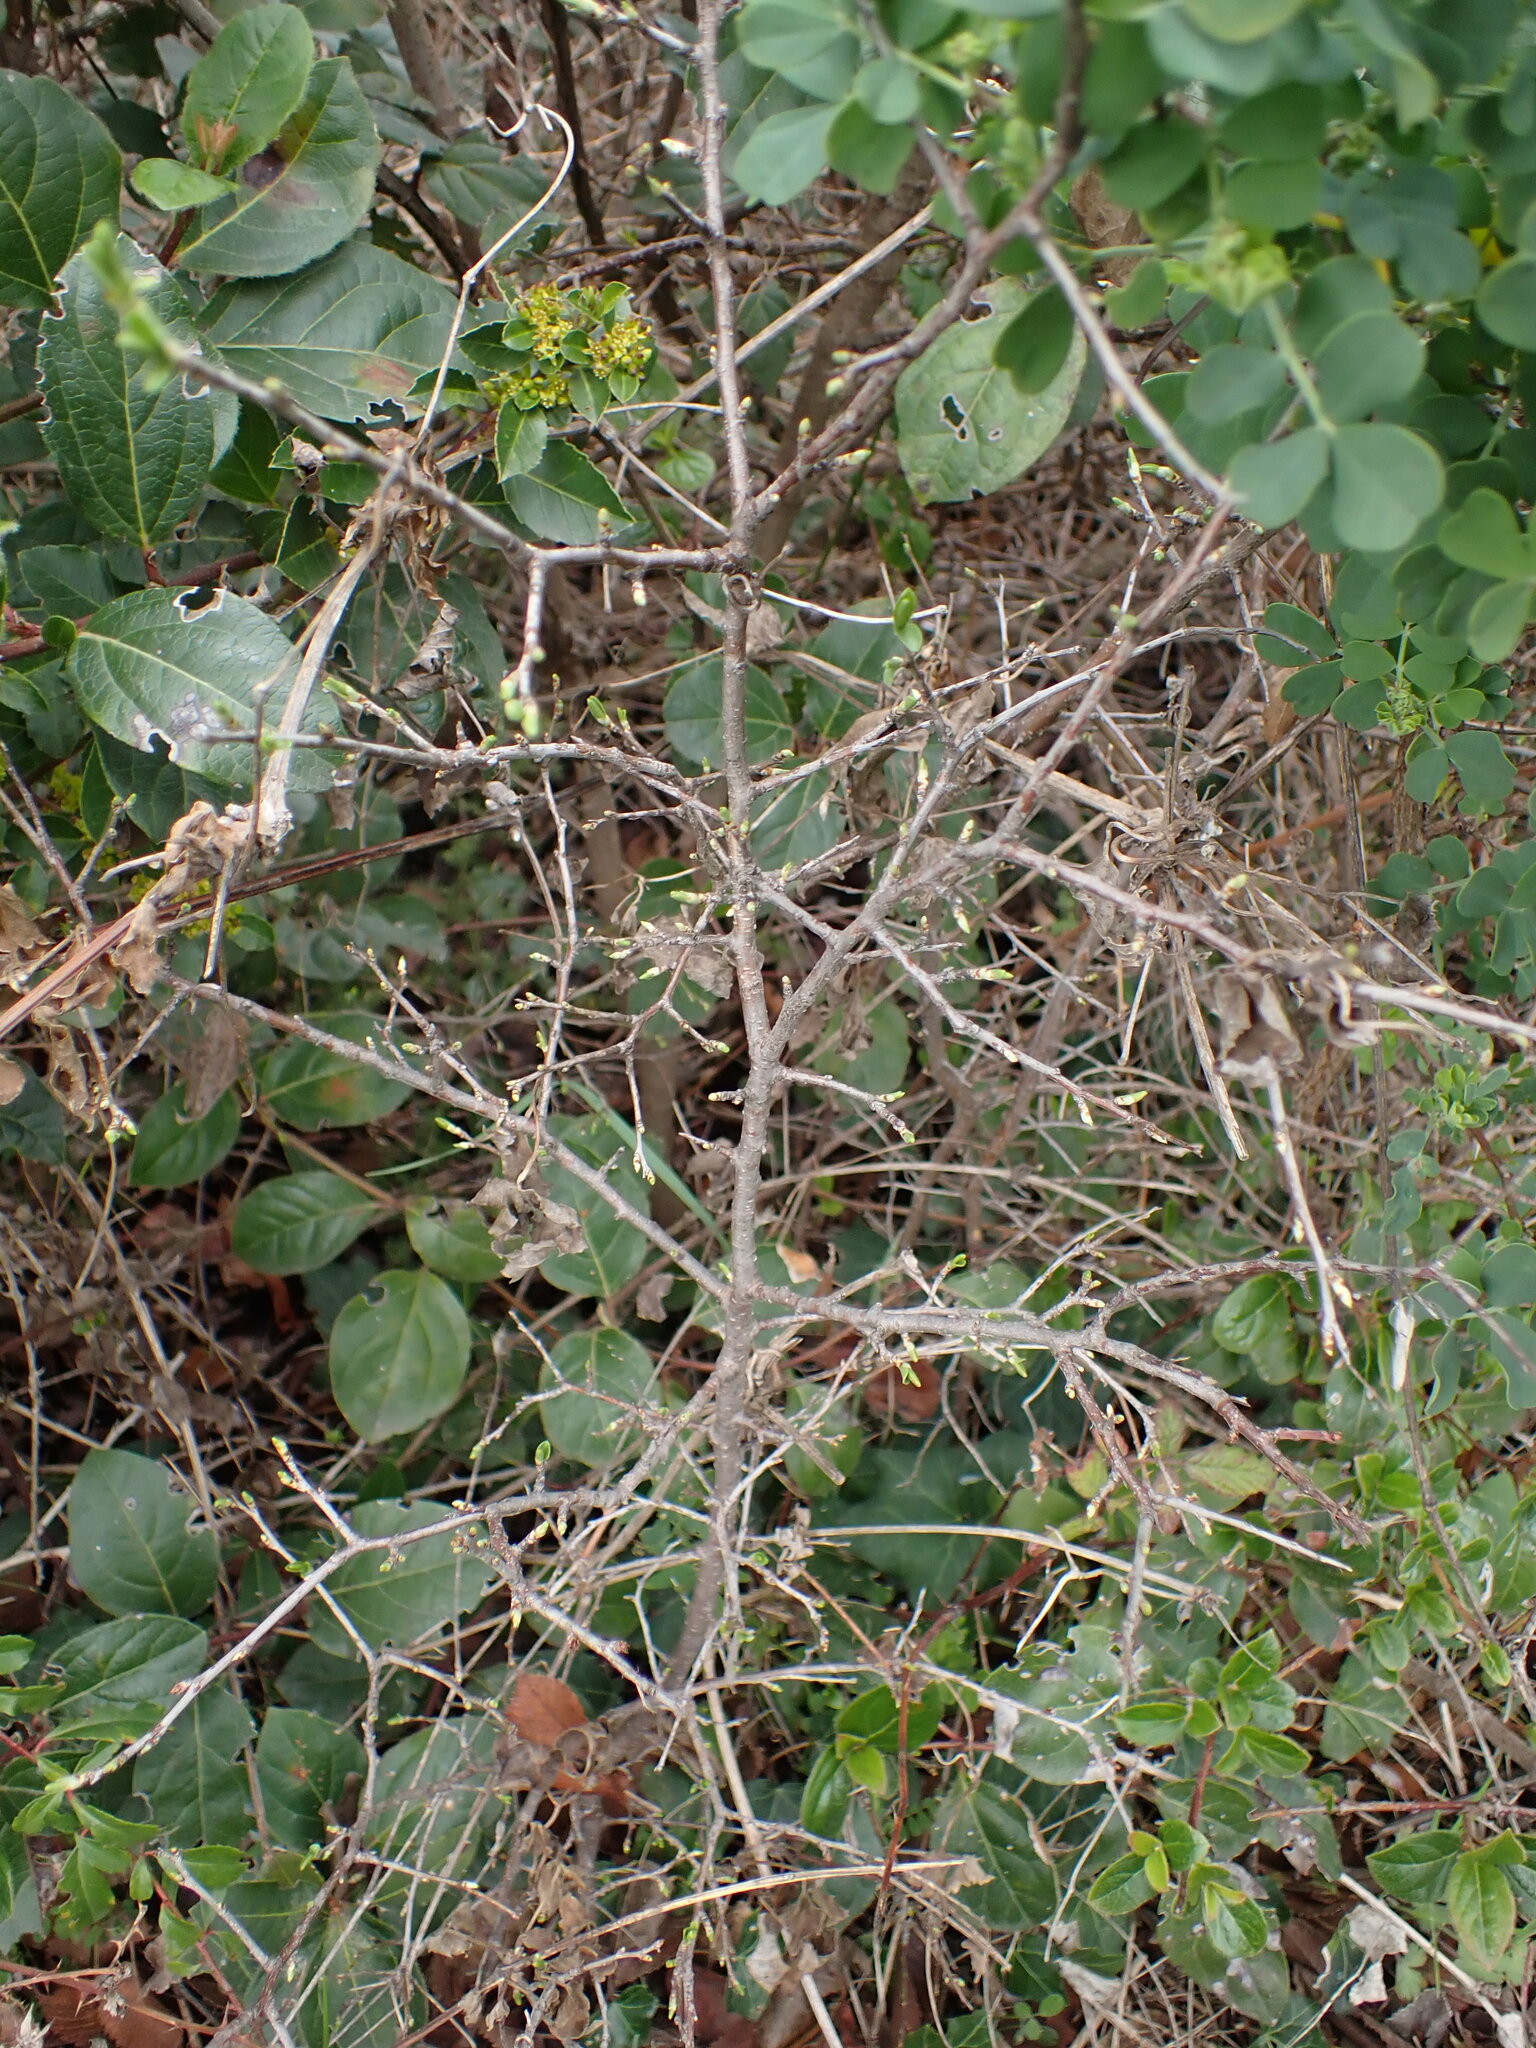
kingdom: Plantae
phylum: Tracheophyta
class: Magnoliopsida
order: Rosales
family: Rosaceae
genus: Prunus
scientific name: Prunus spinosa
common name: Blackthorn
